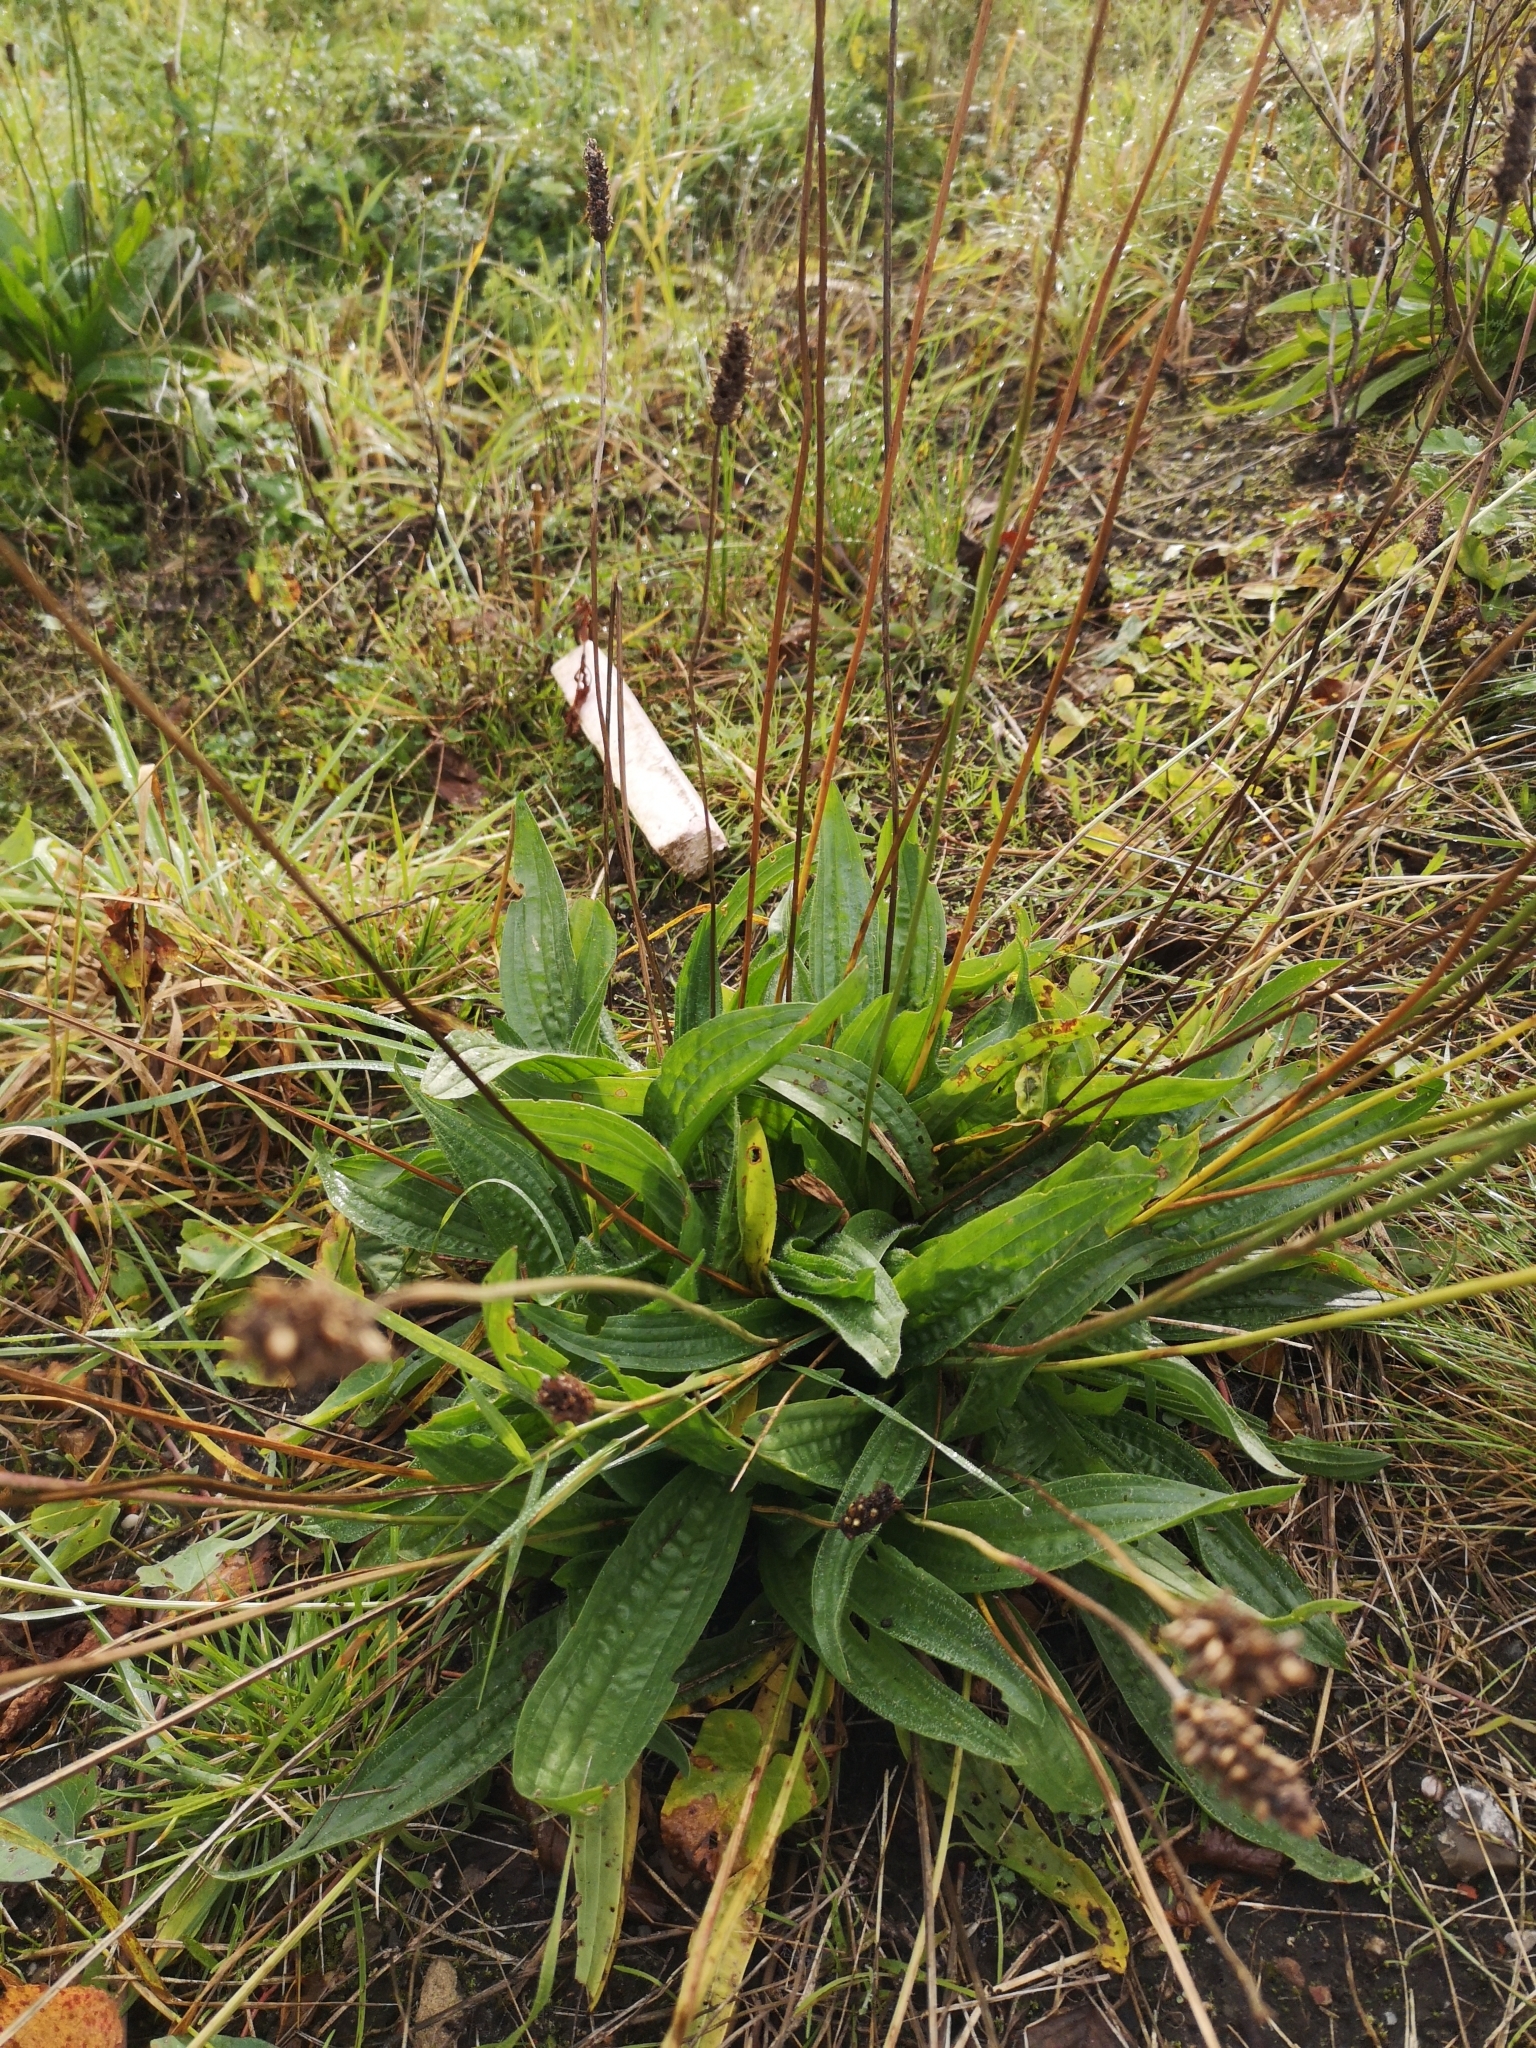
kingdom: Plantae
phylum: Tracheophyta
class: Magnoliopsida
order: Lamiales
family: Plantaginaceae
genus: Plantago
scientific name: Plantago lanceolata
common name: Ribwort plantain
